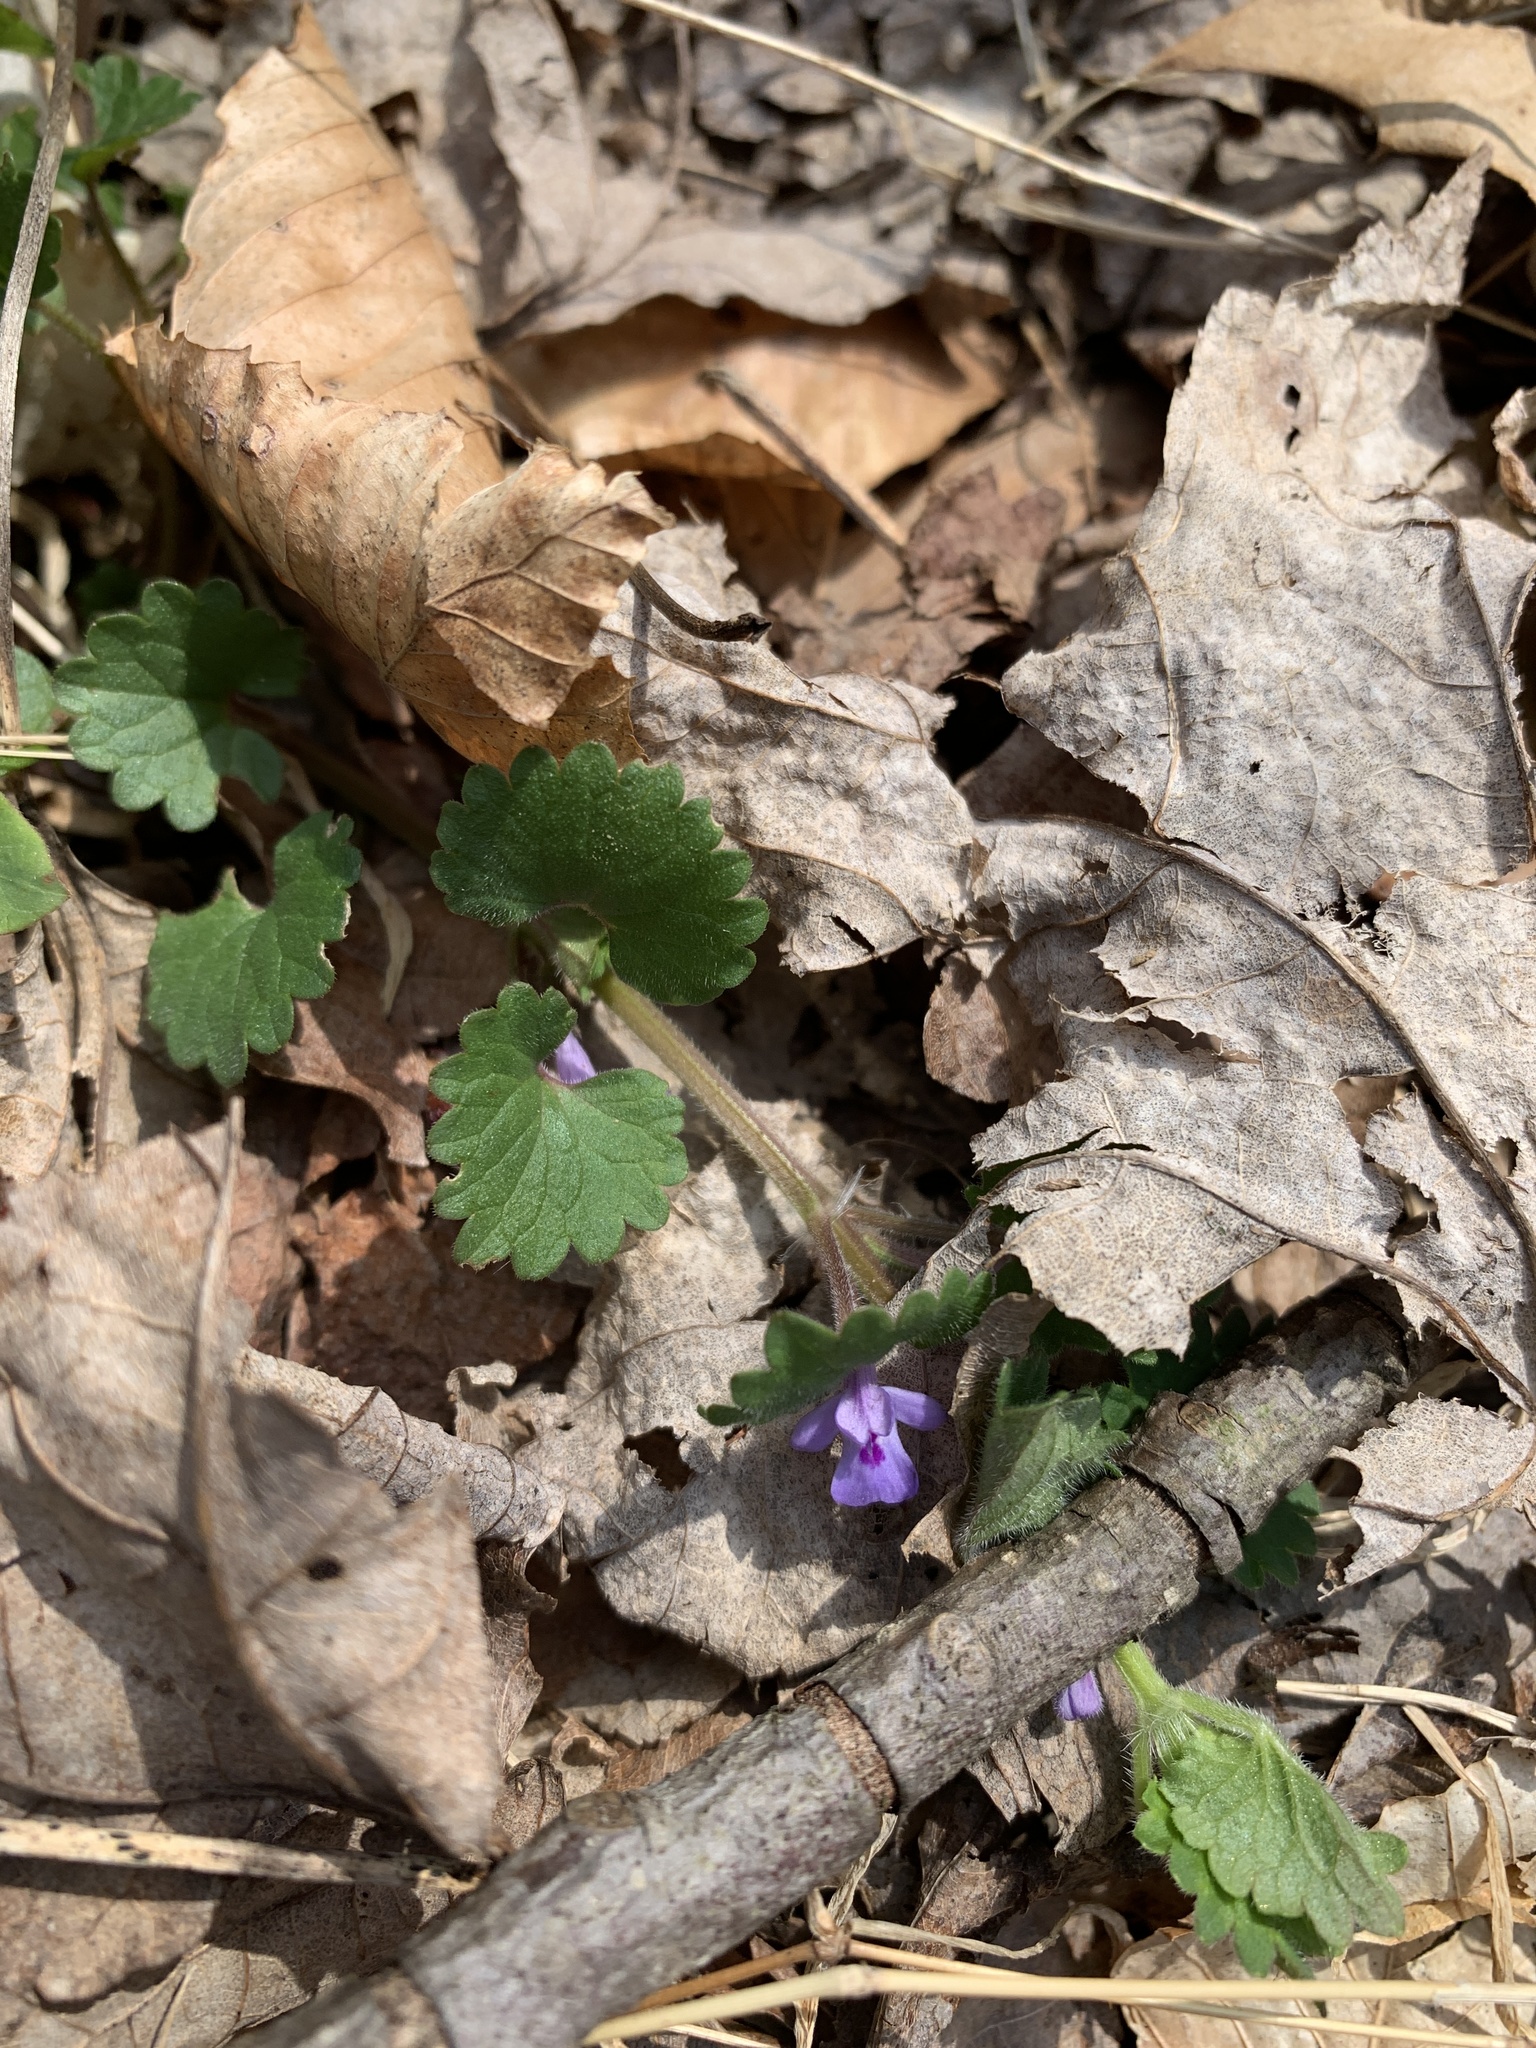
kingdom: Plantae
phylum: Tracheophyta
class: Magnoliopsida
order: Lamiales
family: Lamiaceae
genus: Glechoma
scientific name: Glechoma hederacea
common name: Ground ivy
